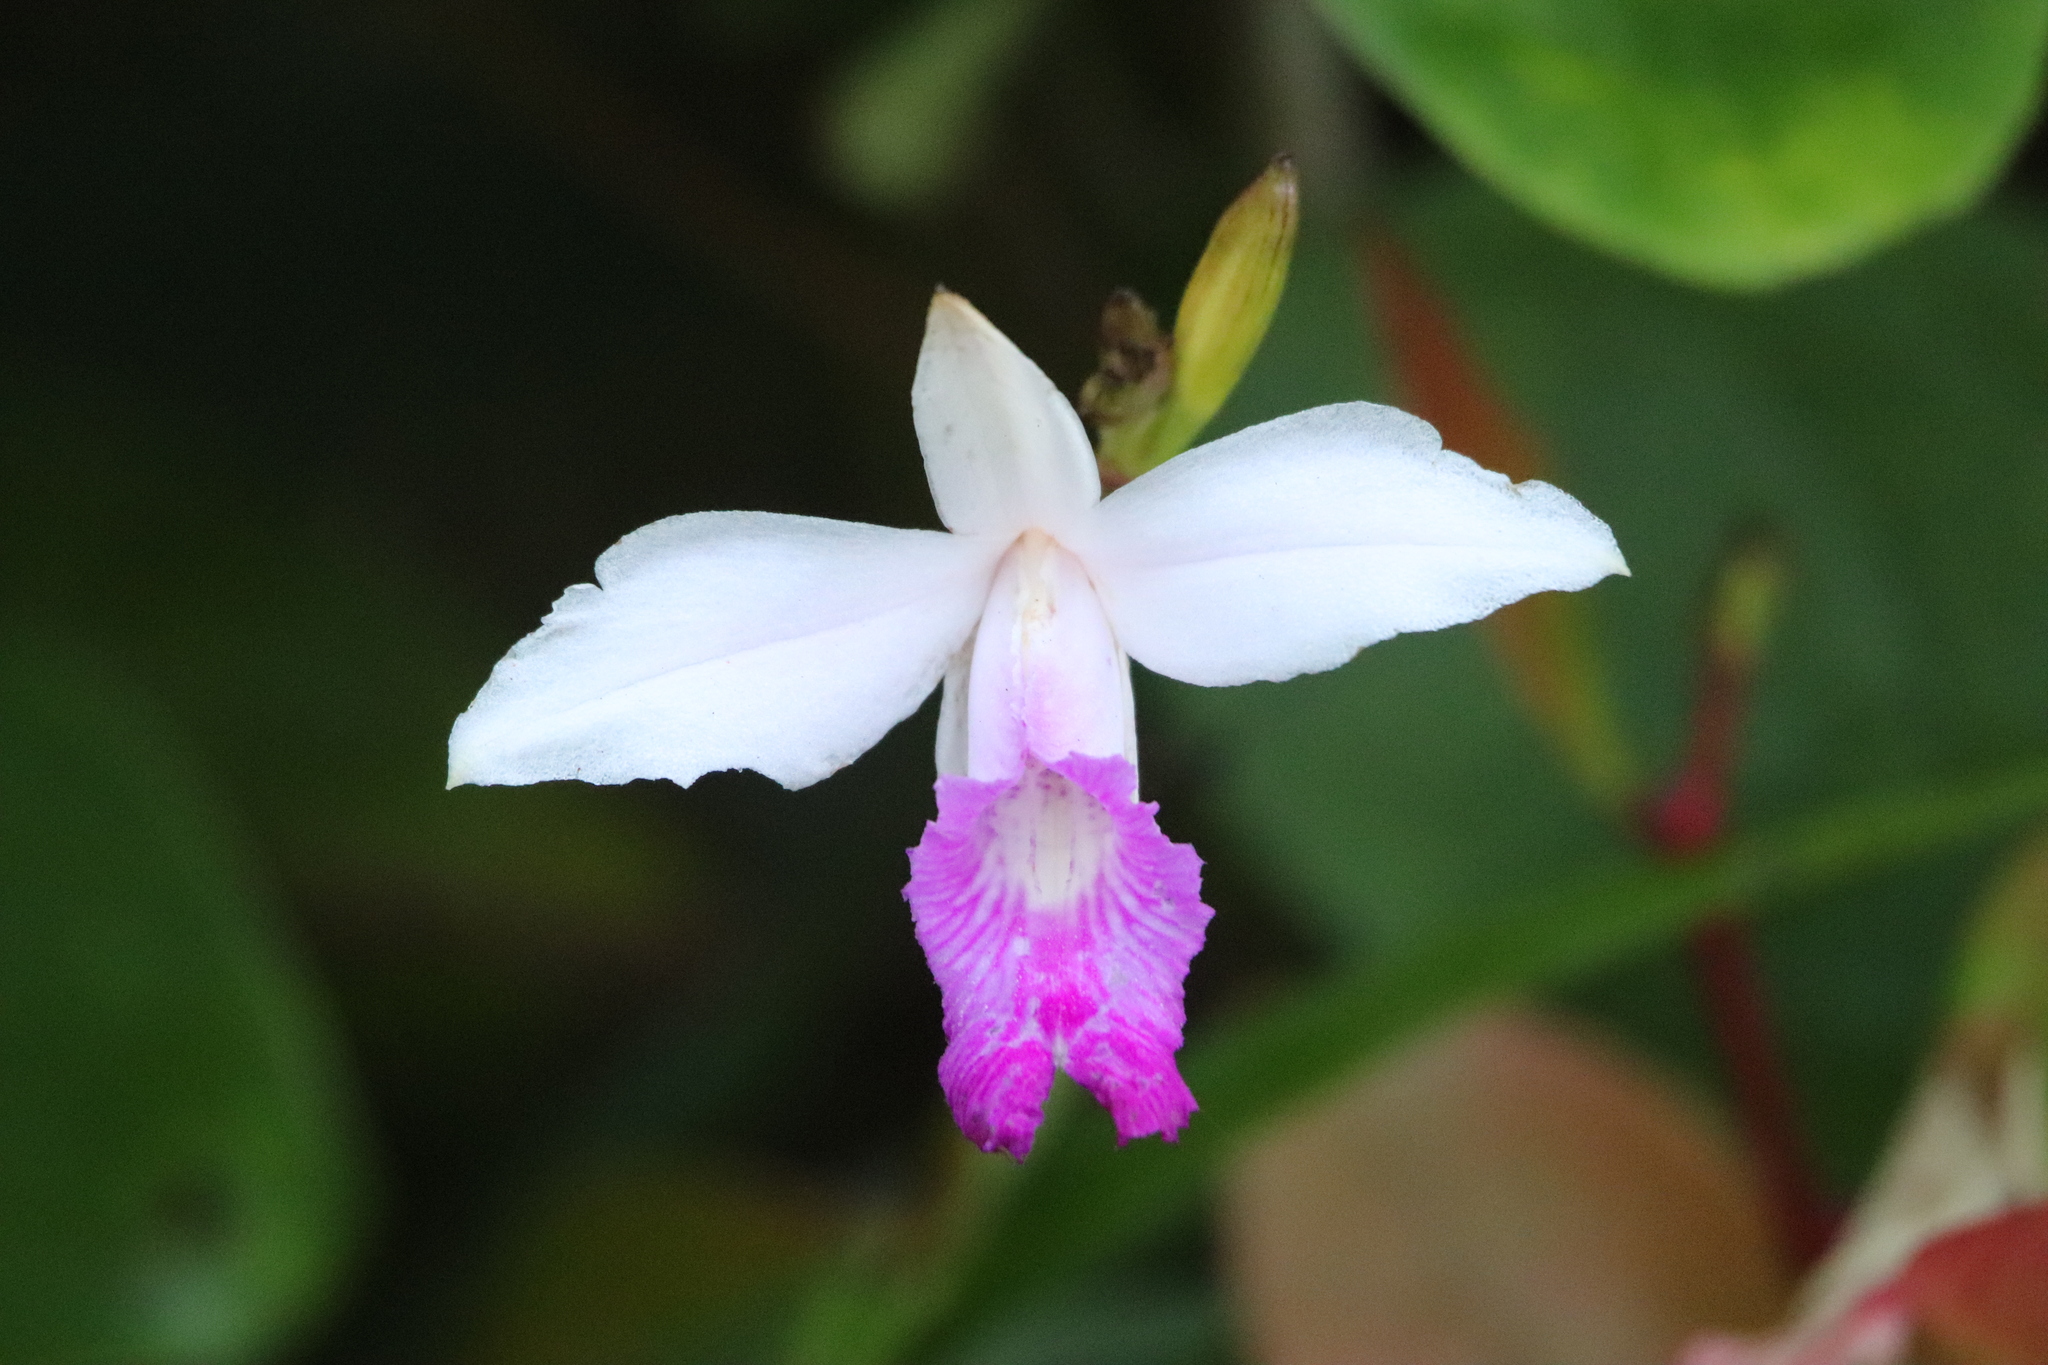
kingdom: Plantae
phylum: Tracheophyta
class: Liliopsida
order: Asparagales
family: Orchidaceae
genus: Arundina
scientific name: Arundina graminifolia
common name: Bamboo orchid
